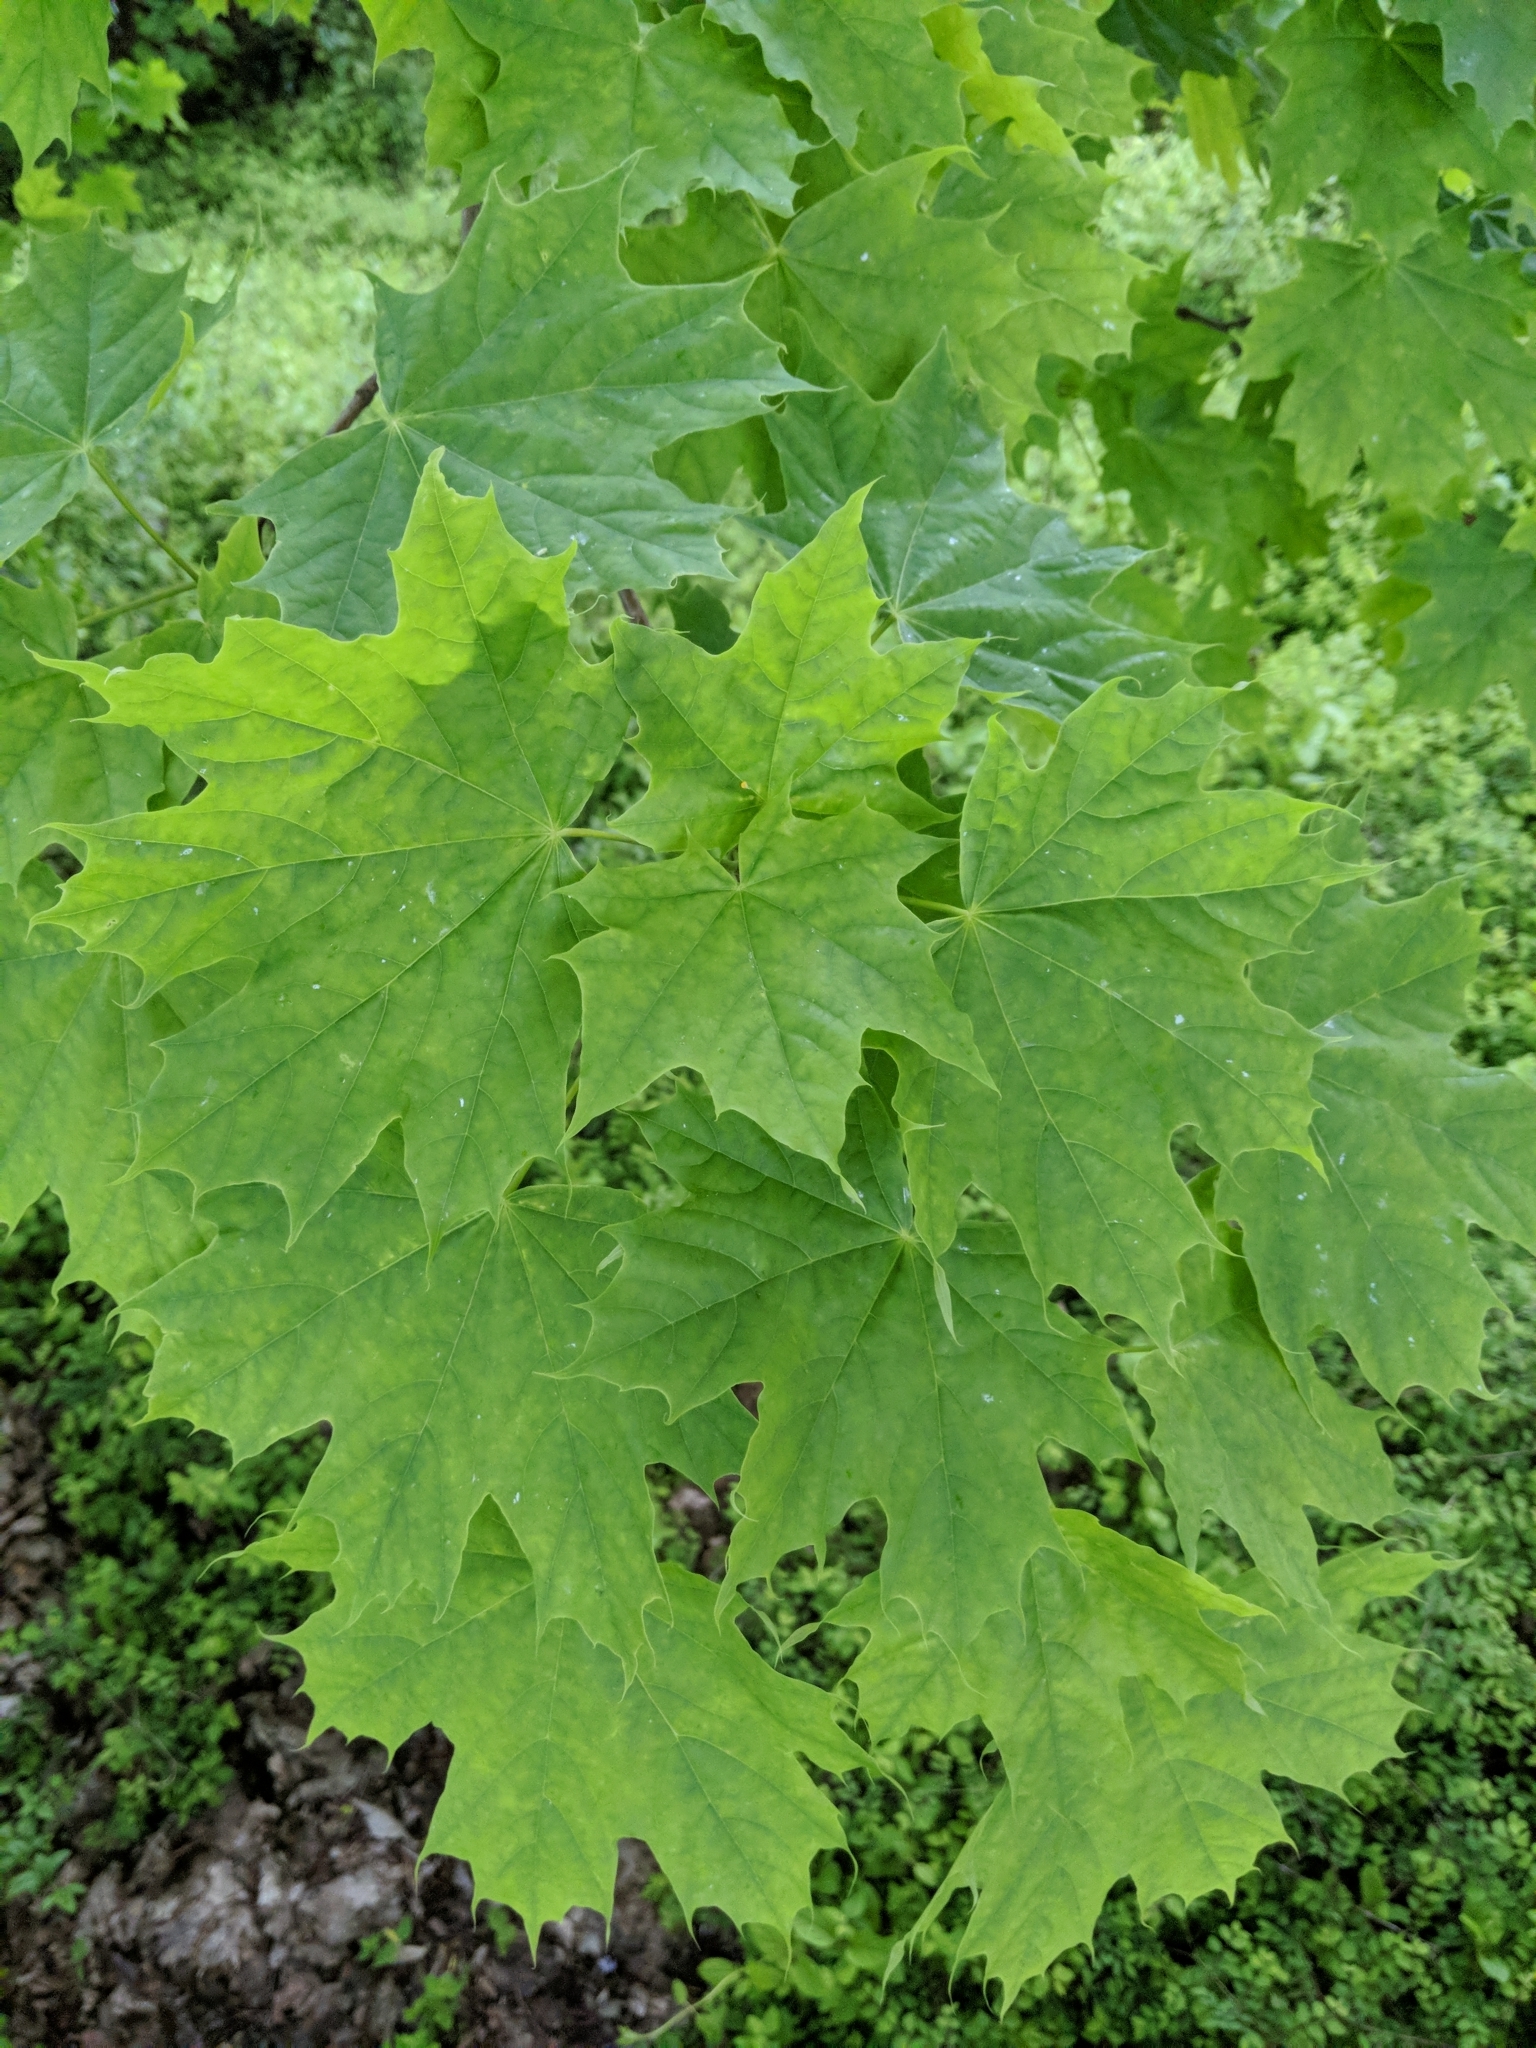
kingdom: Plantae
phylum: Tracheophyta
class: Magnoliopsida
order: Sapindales
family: Sapindaceae
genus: Acer
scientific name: Acer platanoides
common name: Norway maple
